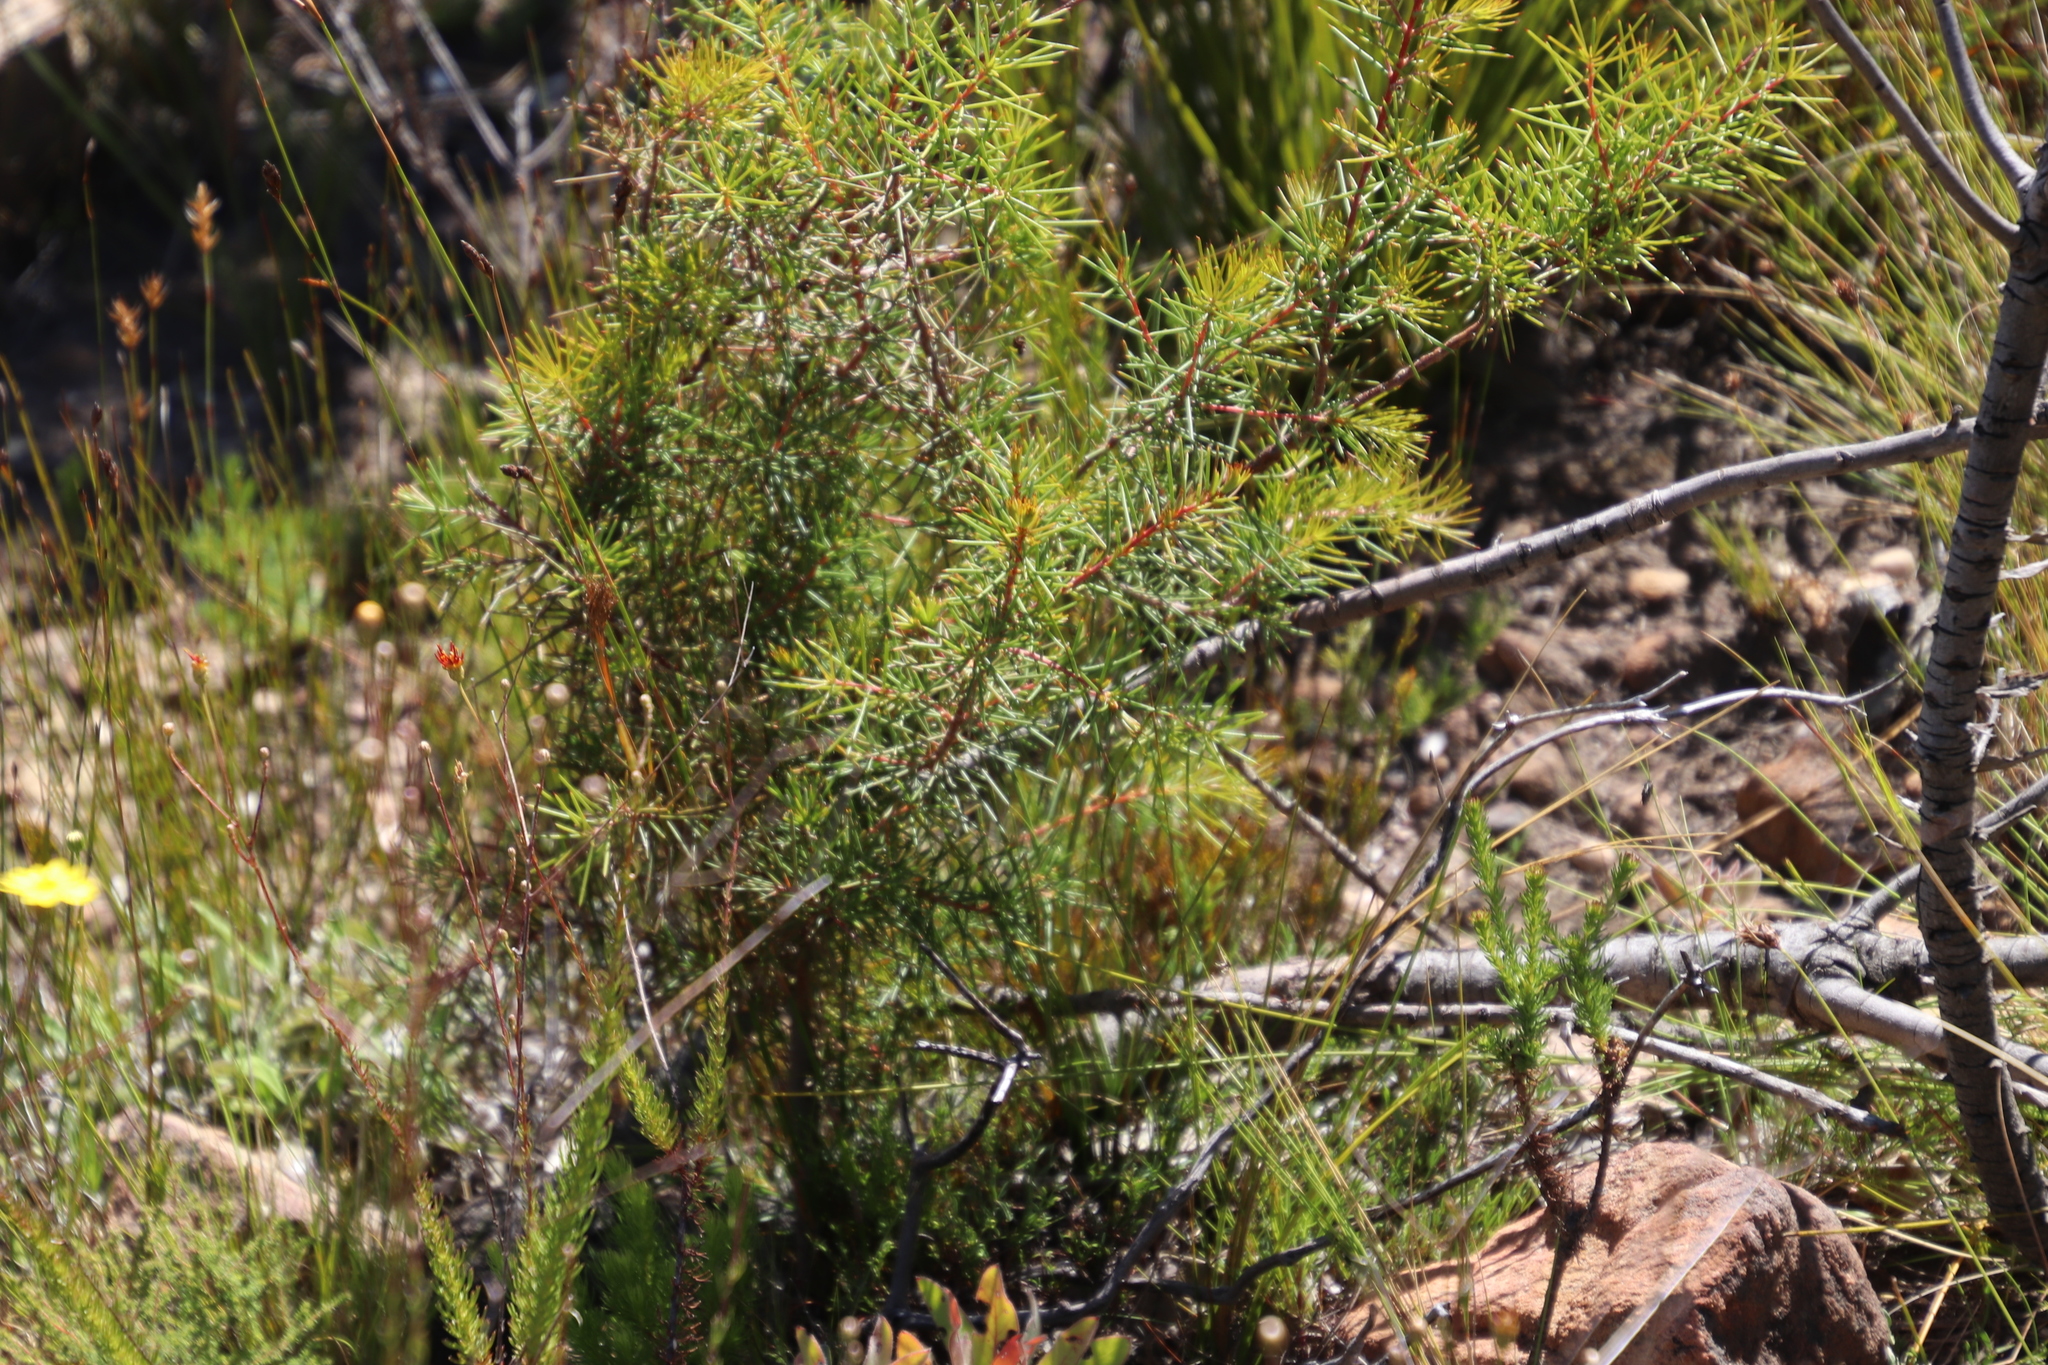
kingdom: Plantae
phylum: Tracheophyta
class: Magnoliopsida
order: Proteales
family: Proteaceae
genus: Hakea
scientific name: Hakea sericea
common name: Needle bush
